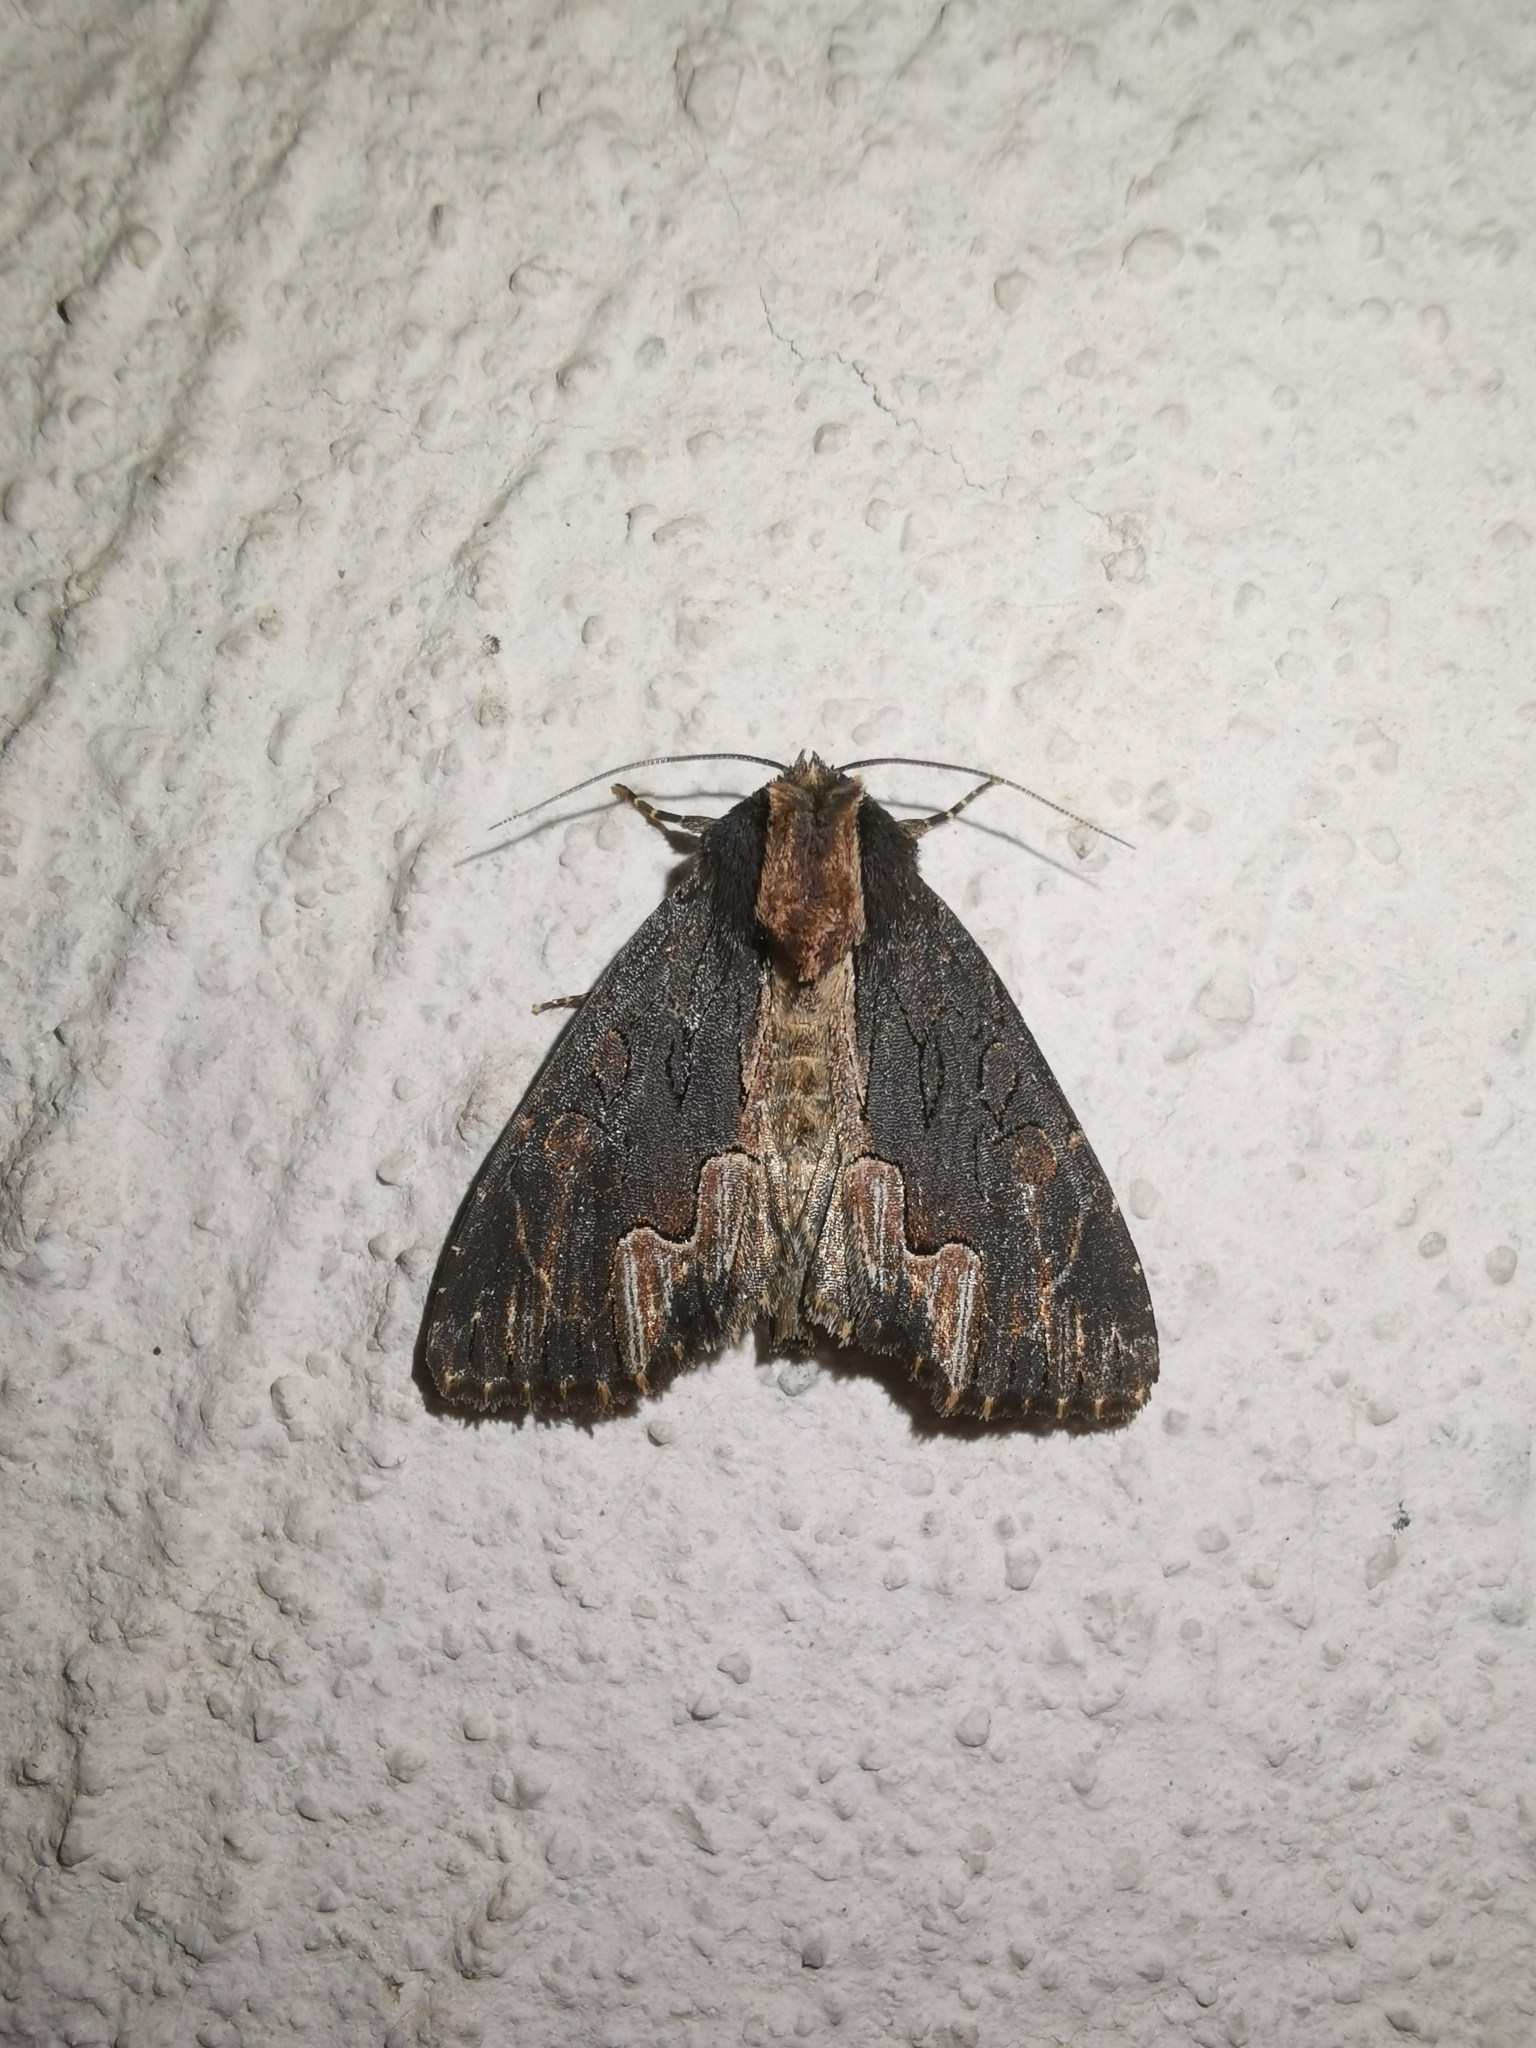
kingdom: Animalia
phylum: Arthropoda
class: Insecta
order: Lepidoptera
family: Noctuidae
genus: Dypterygia
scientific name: Dypterygia scabriuscula
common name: Bird's wing
